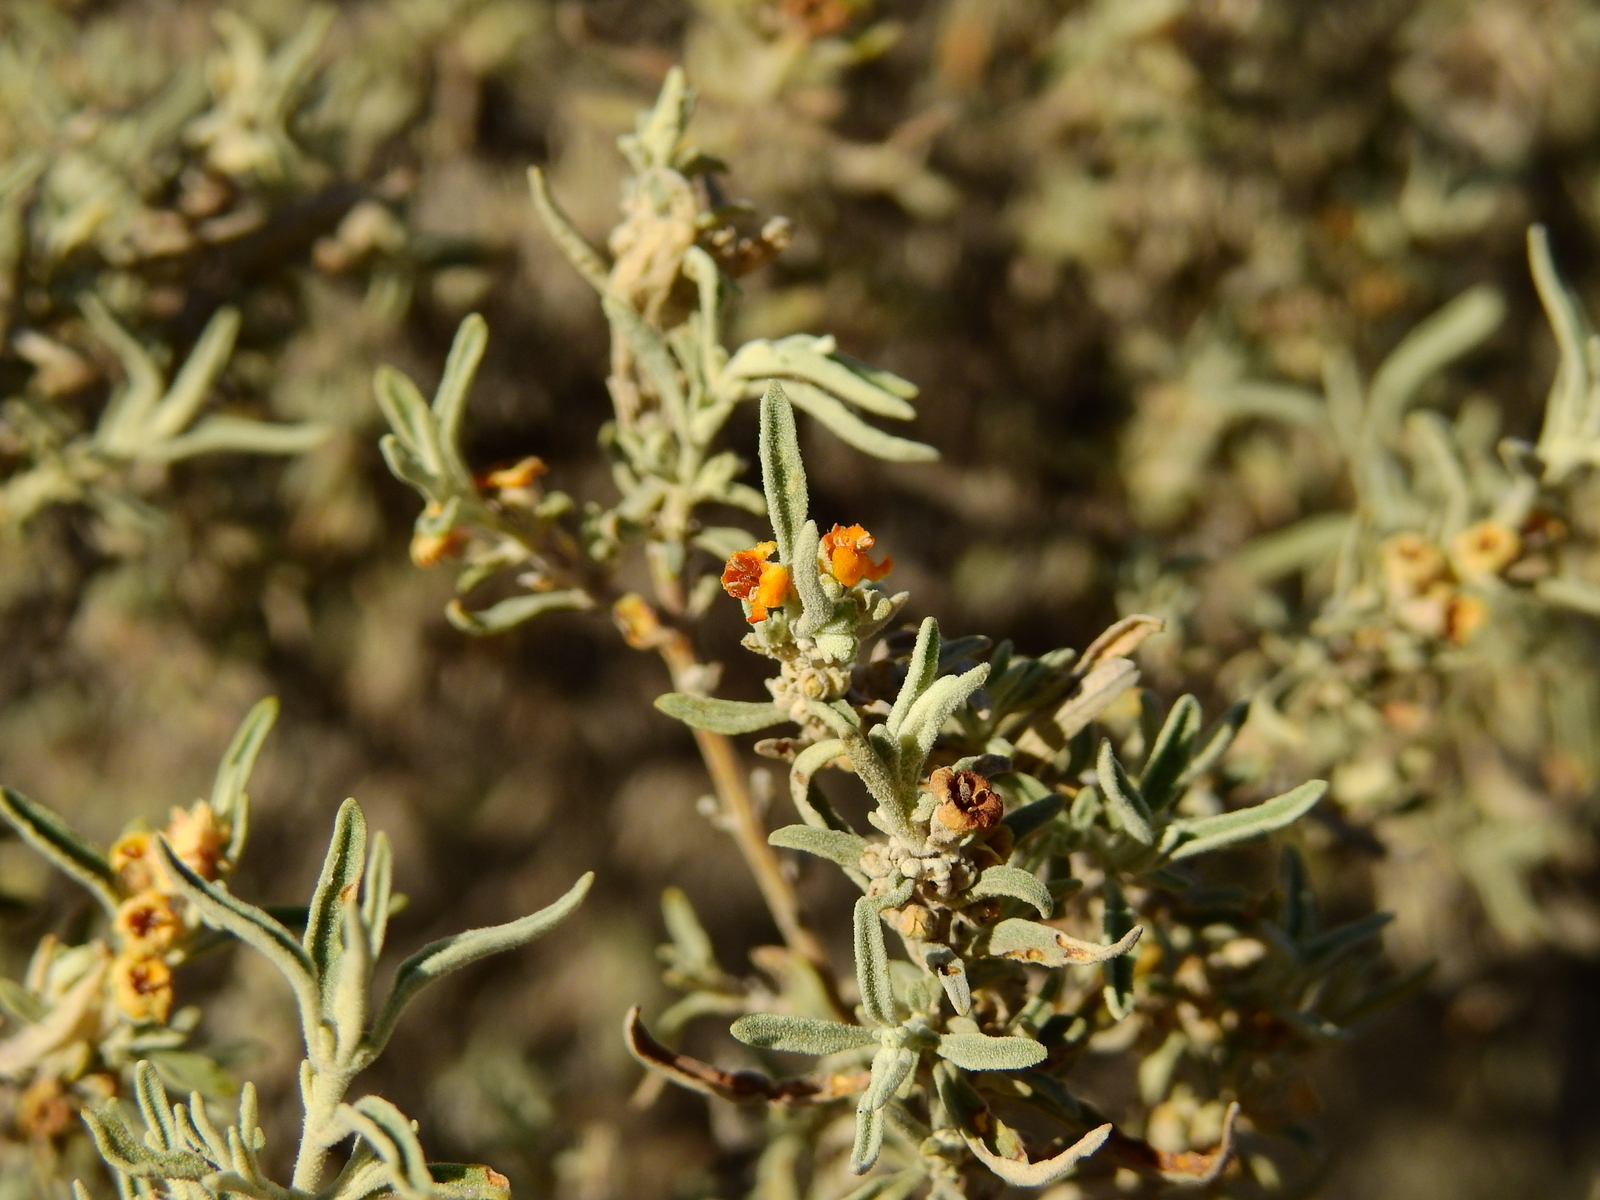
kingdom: Plantae
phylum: Tracheophyta
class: Magnoliopsida
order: Lamiales
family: Scrophulariaceae
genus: Buddleja
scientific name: Buddleja mendozensis
